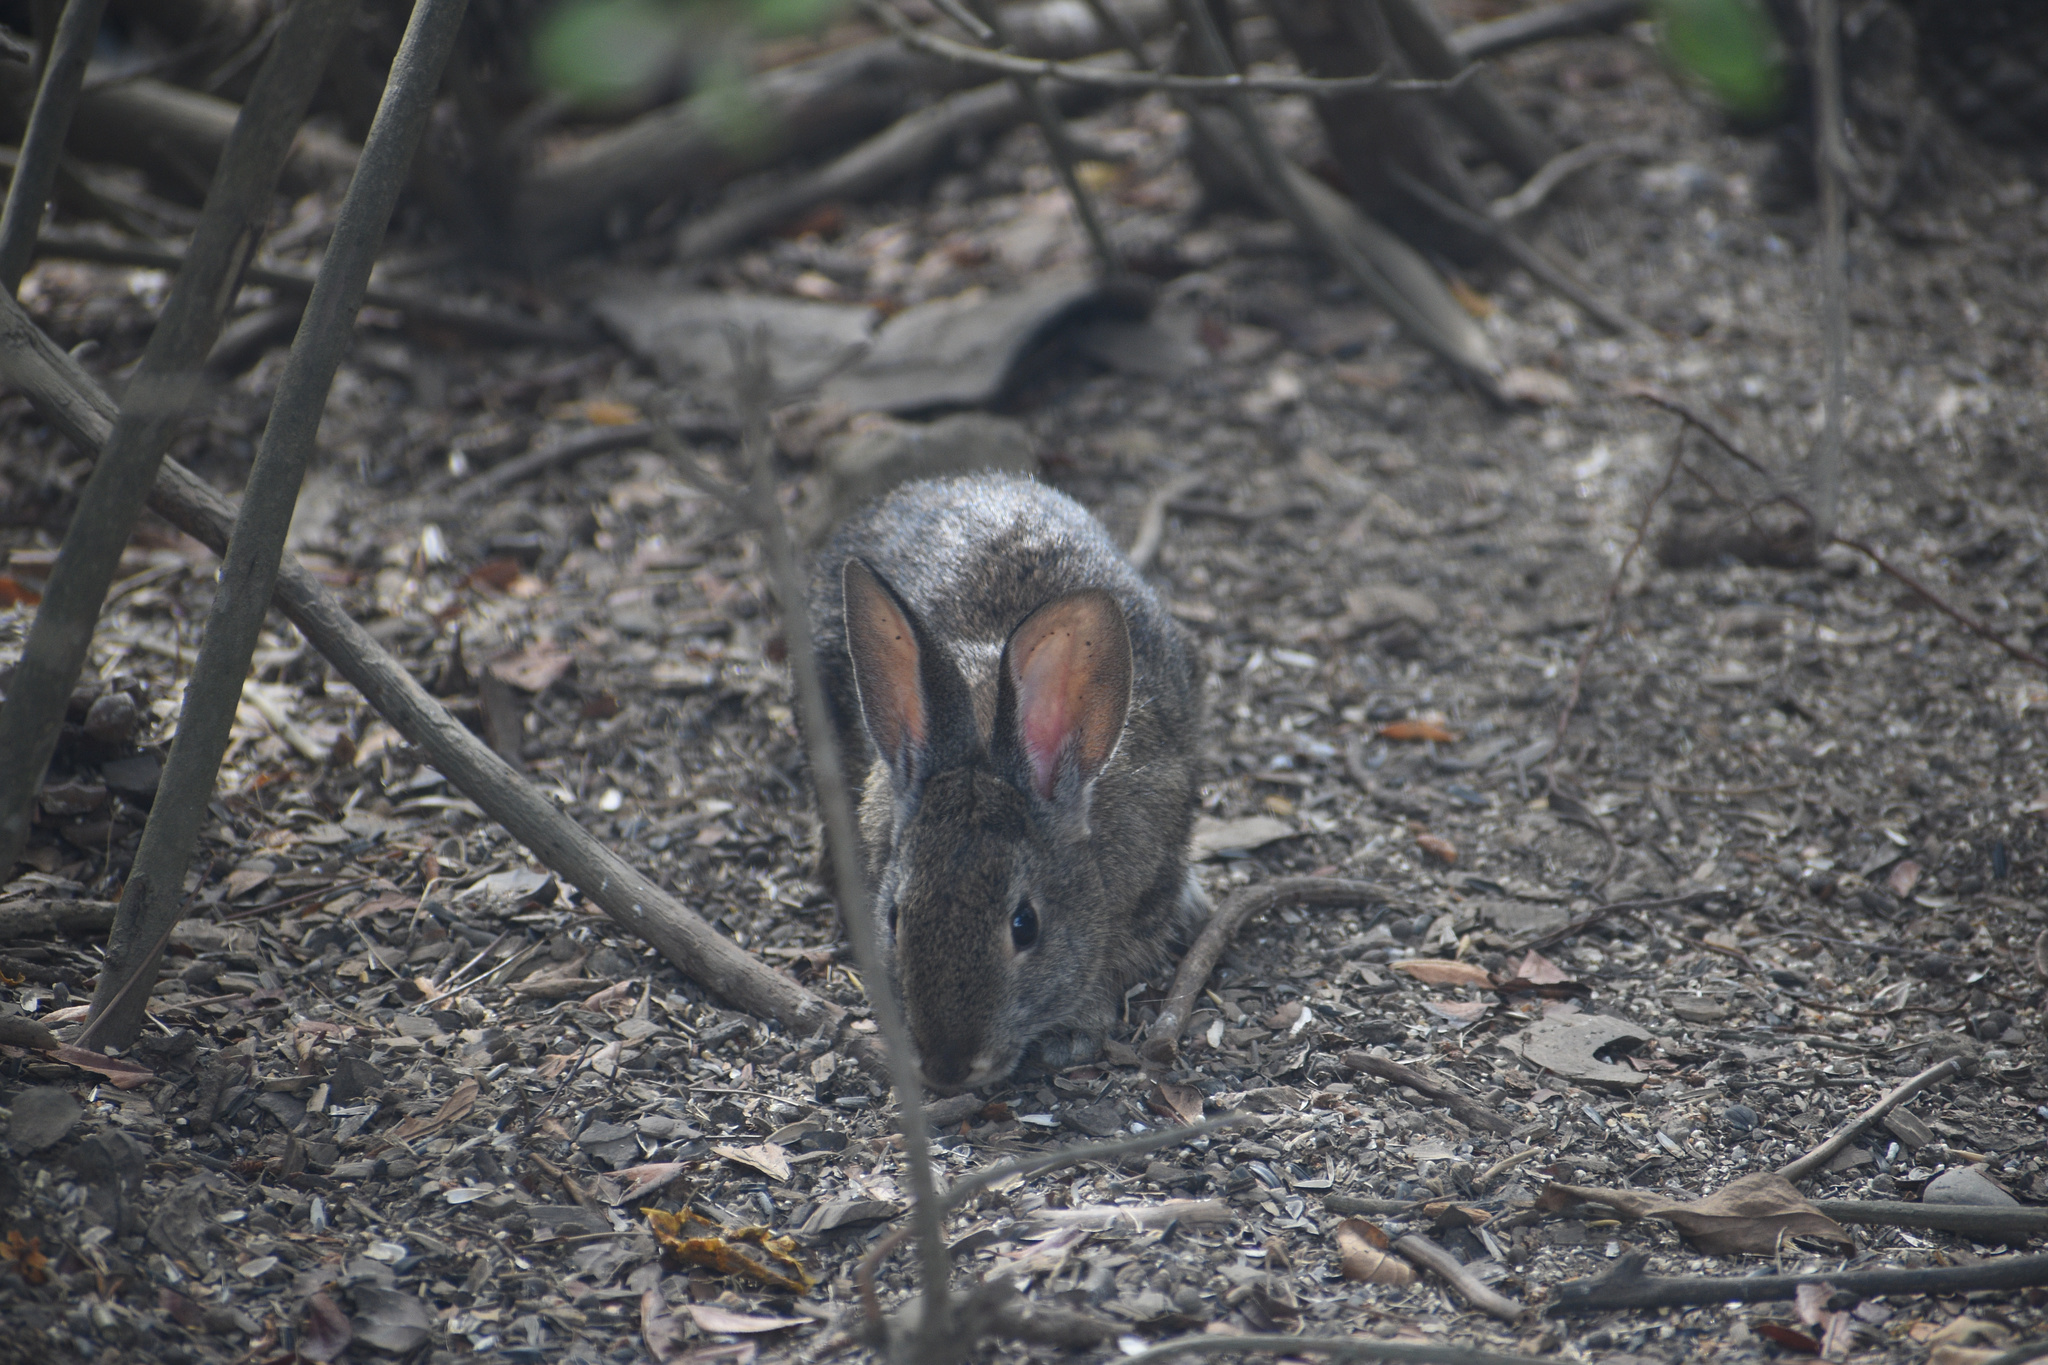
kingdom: Animalia
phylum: Chordata
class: Mammalia
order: Lagomorpha
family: Leporidae
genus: Sylvilagus
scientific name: Sylvilagus bachmani
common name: Brush rabbit
